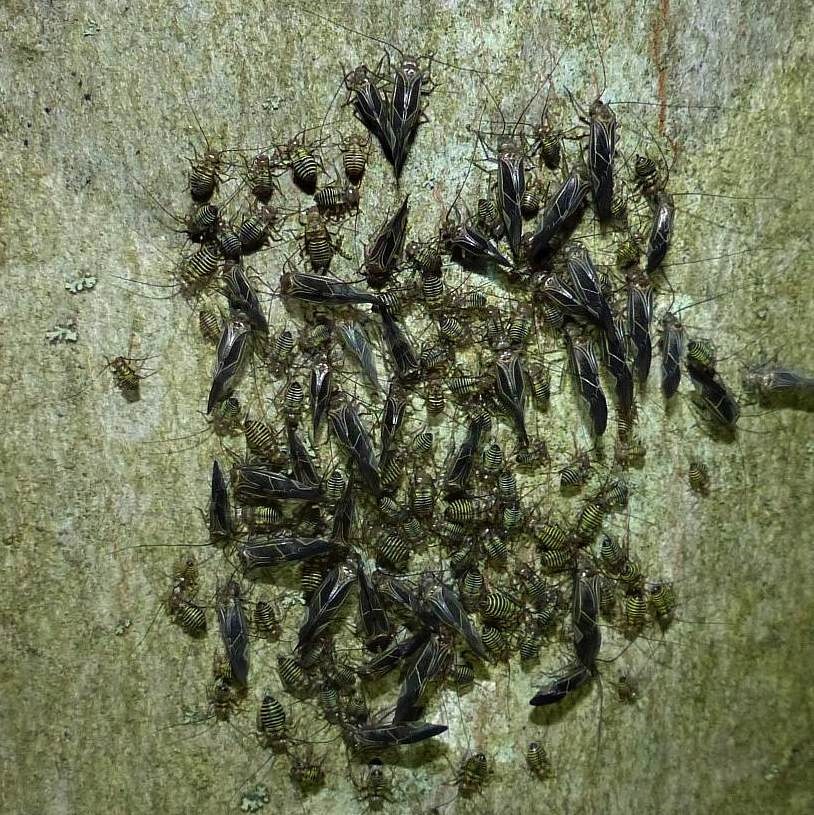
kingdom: Animalia
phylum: Arthropoda
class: Insecta
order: Psocodea
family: Psocidae
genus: Cerastipsocus
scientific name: Cerastipsocus venosus
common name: Tree cattle
